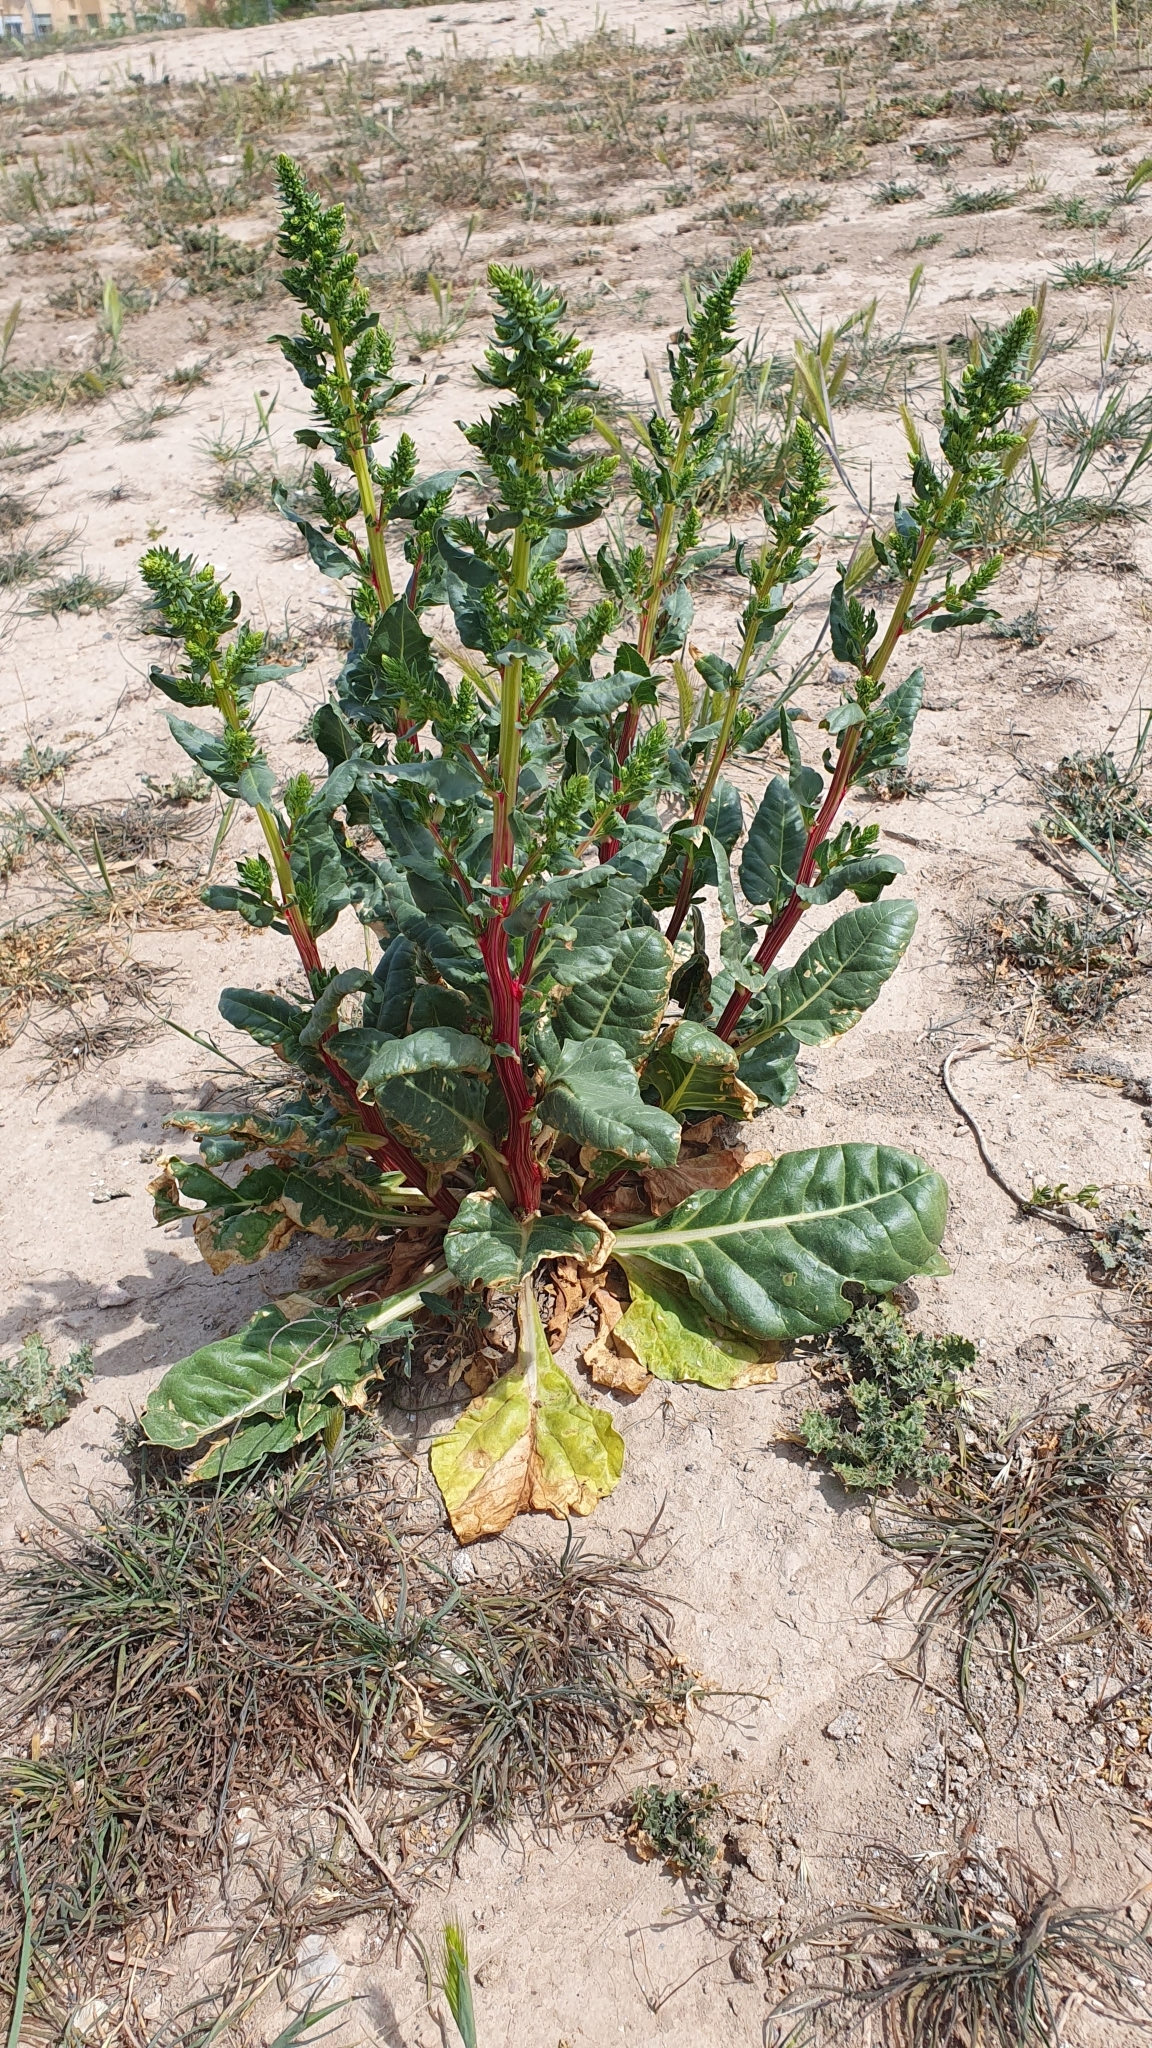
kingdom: Plantae
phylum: Tracheophyta
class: Magnoliopsida
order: Caryophyllales
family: Amaranthaceae
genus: Beta
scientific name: Beta vulgaris
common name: Beet
